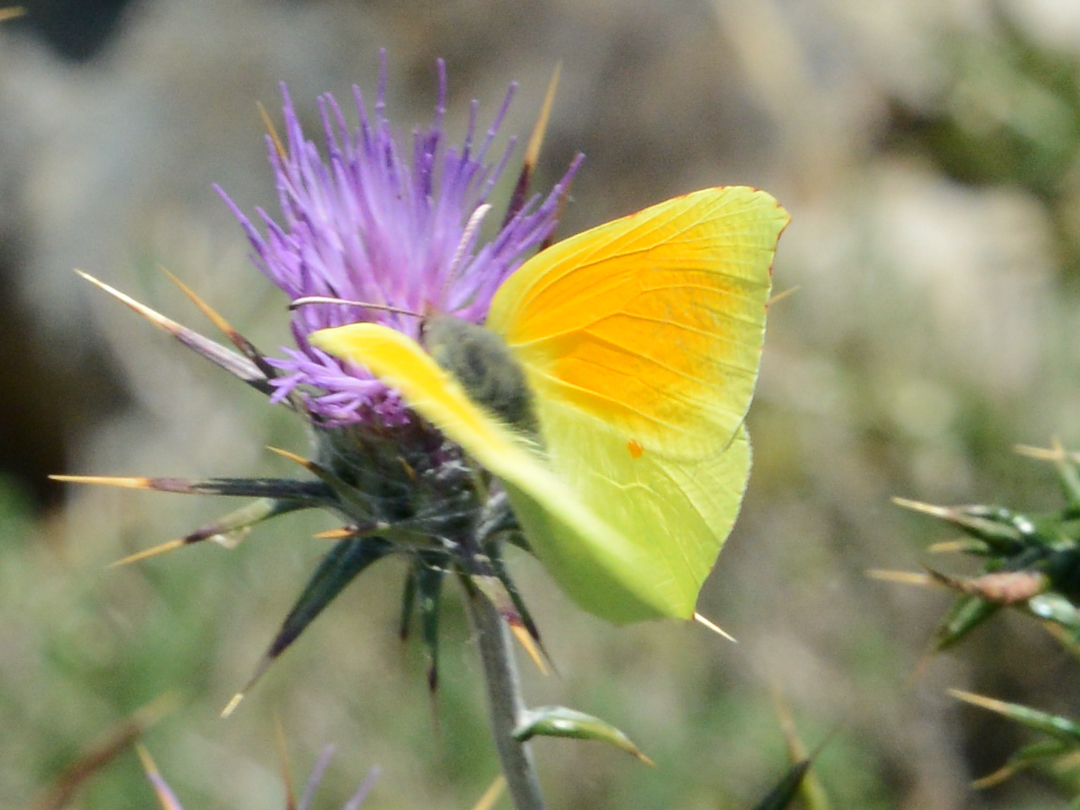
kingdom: Animalia
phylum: Arthropoda
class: Insecta
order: Lepidoptera
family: Pieridae
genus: Gonepteryx
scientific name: Gonepteryx cleopatra
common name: Cleopatra
